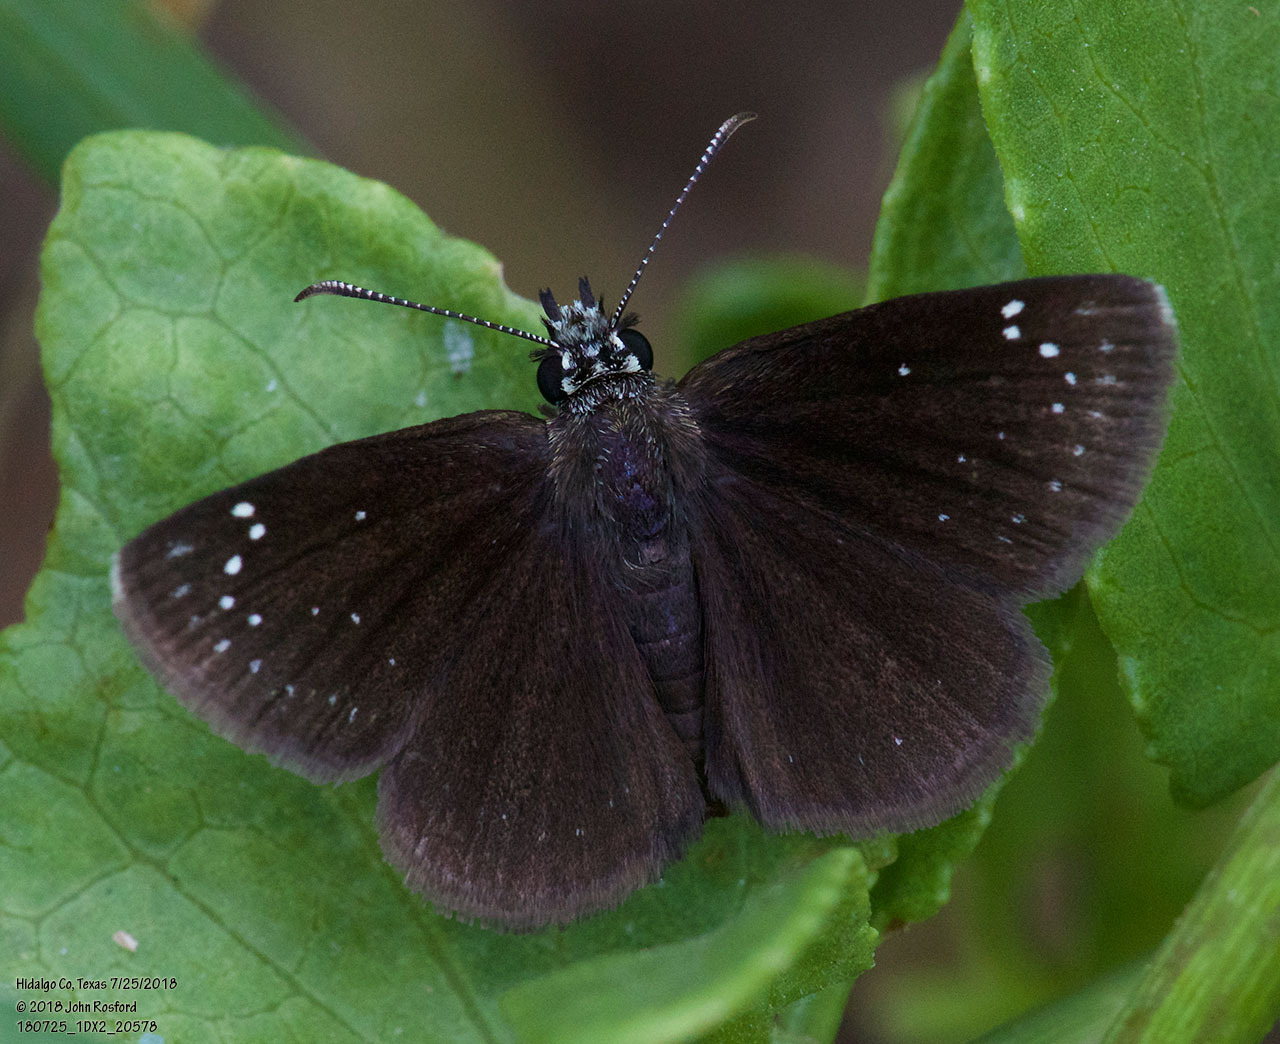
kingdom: Animalia
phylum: Arthropoda
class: Insecta
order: Lepidoptera
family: Hesperiidae
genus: Pholisora
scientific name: Pholisora catullus
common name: Common sootywing
